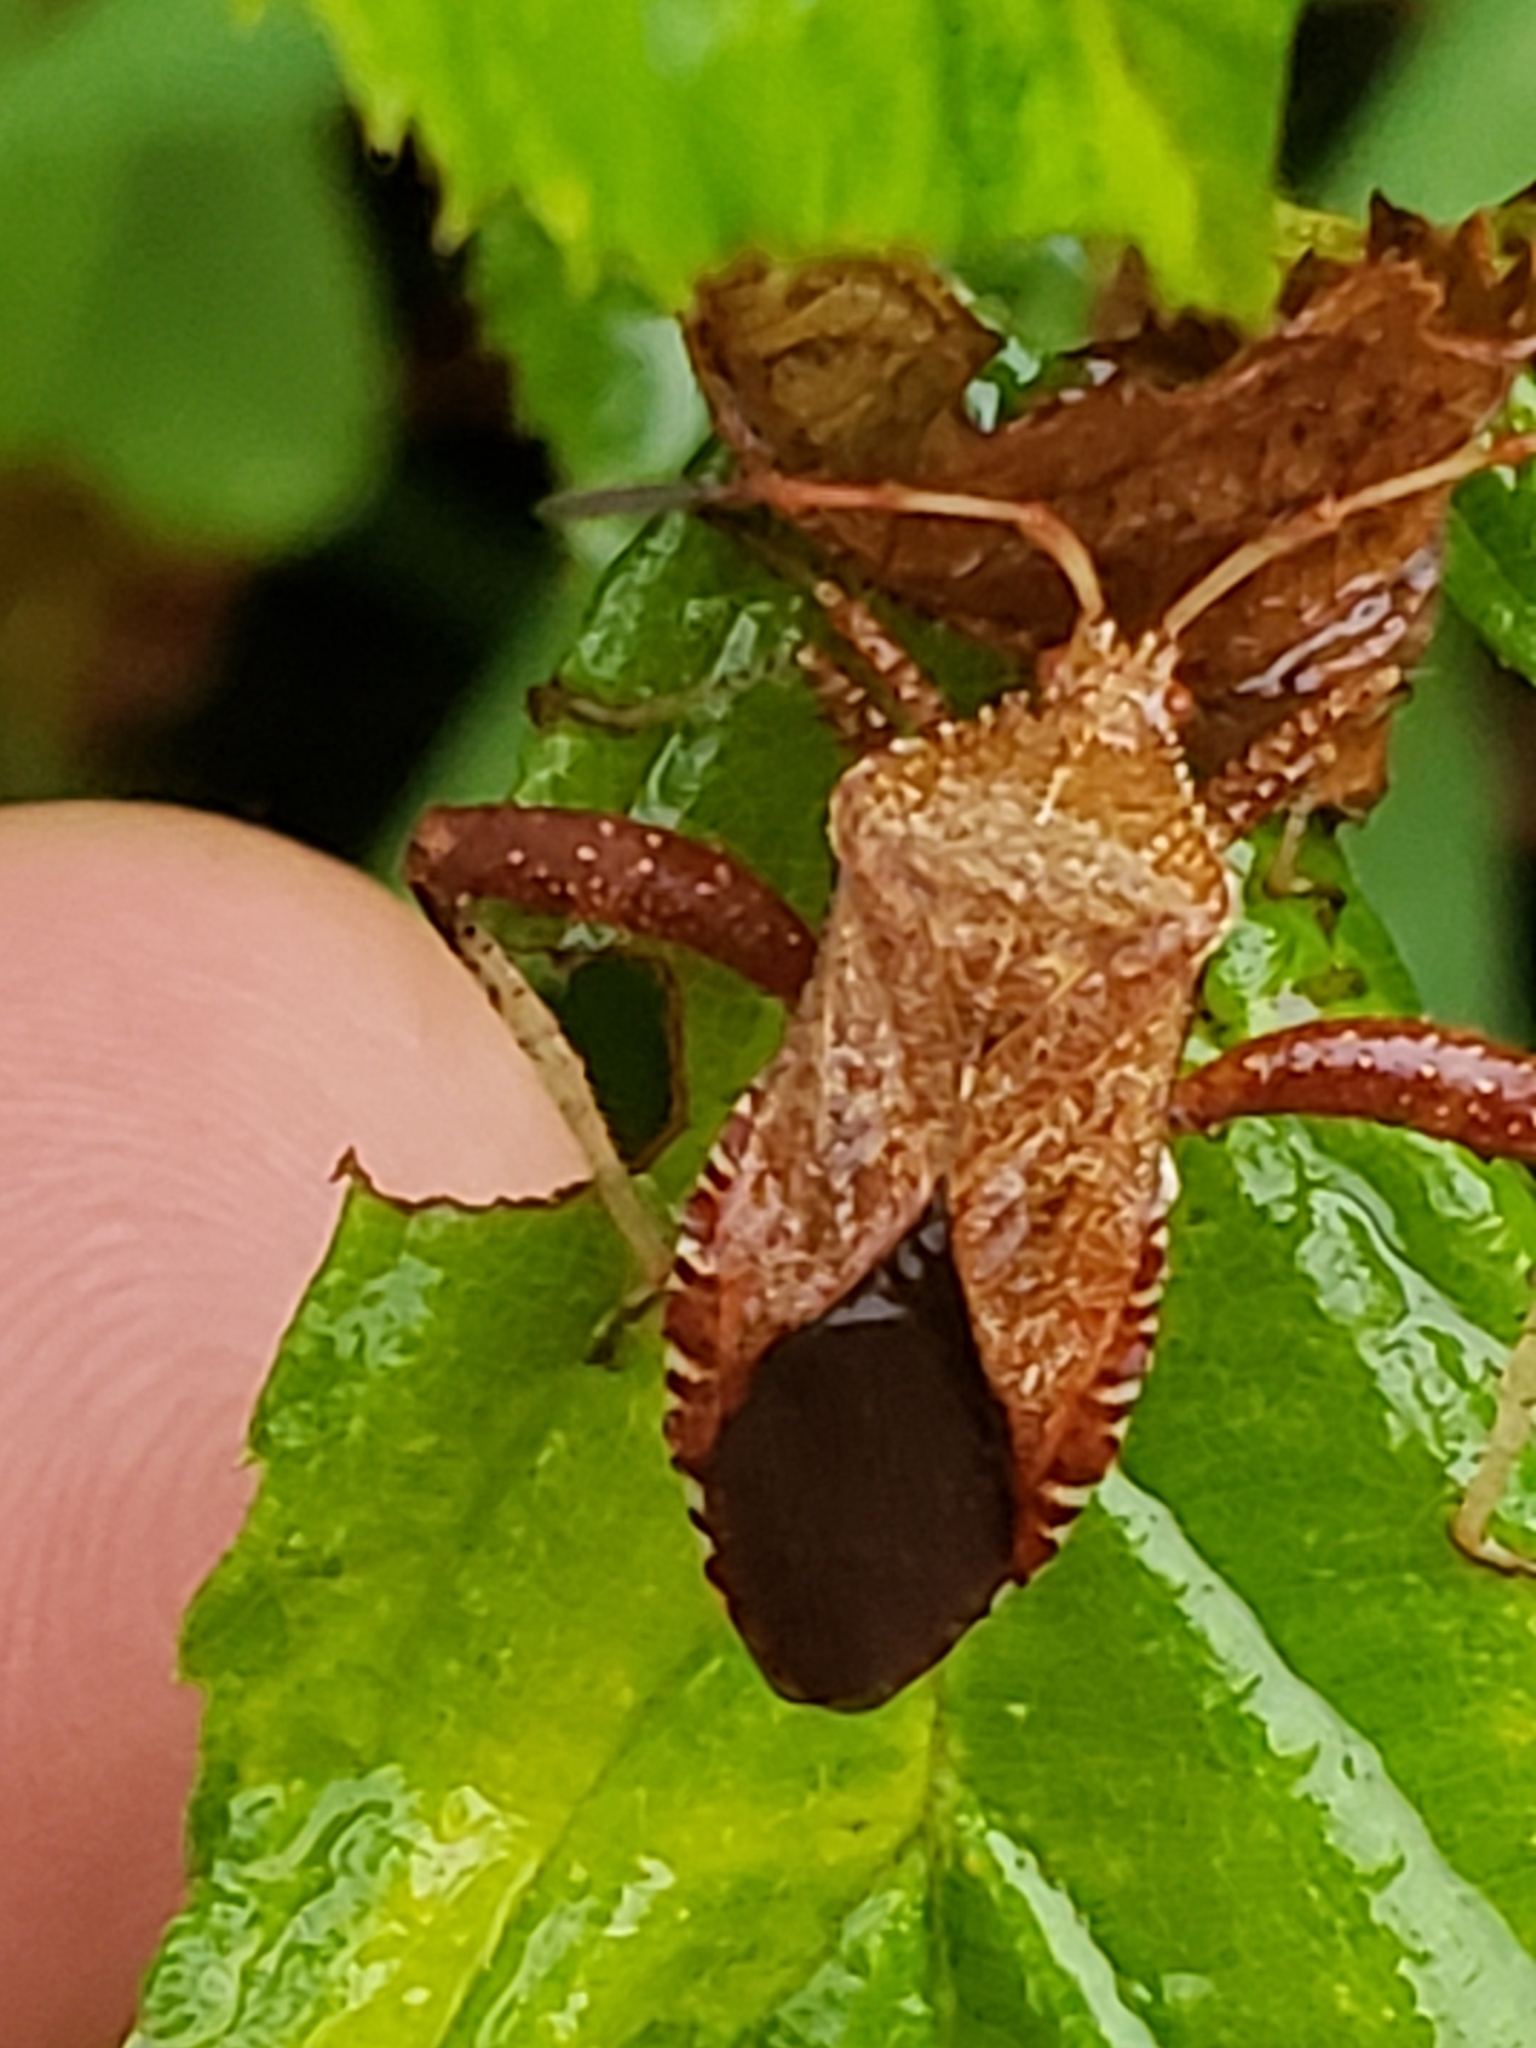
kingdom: Animalia
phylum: Arthropoda
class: Insecta
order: Hemiptera
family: Coreidae
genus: Euthochtha
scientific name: Euthochtha galeator
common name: Helmeted squash bug
